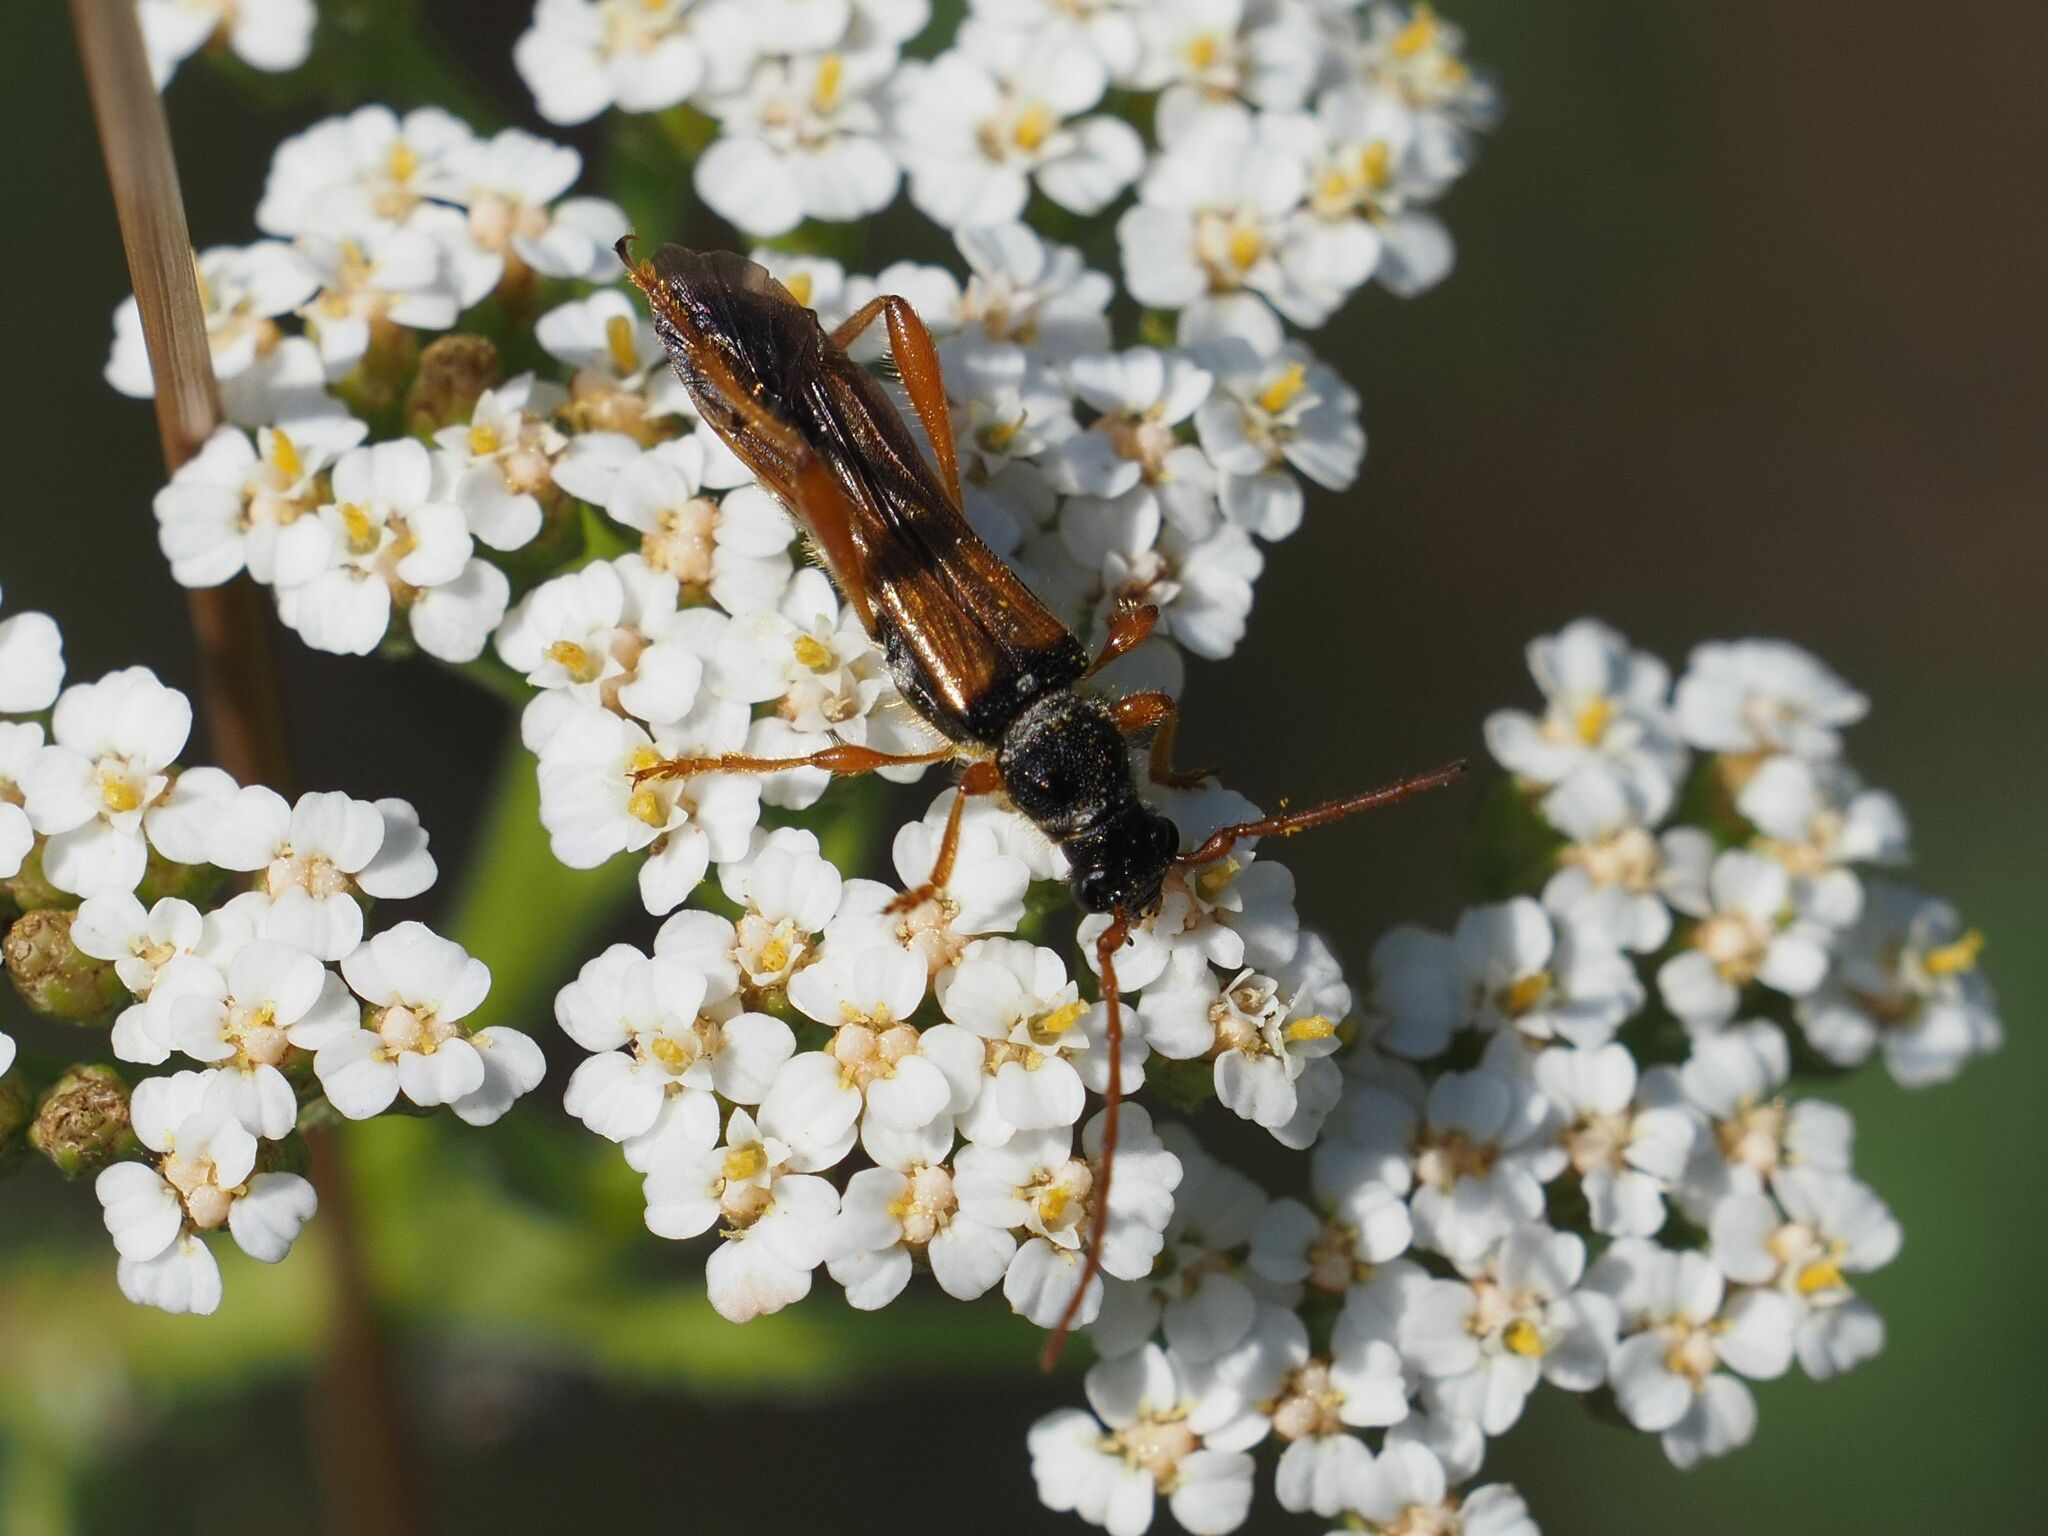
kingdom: Animalia
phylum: Arthropoda
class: Insecta
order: Coleoptera
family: Cerambycidae
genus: Stenopterus
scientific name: Stenopterus flavicornis
